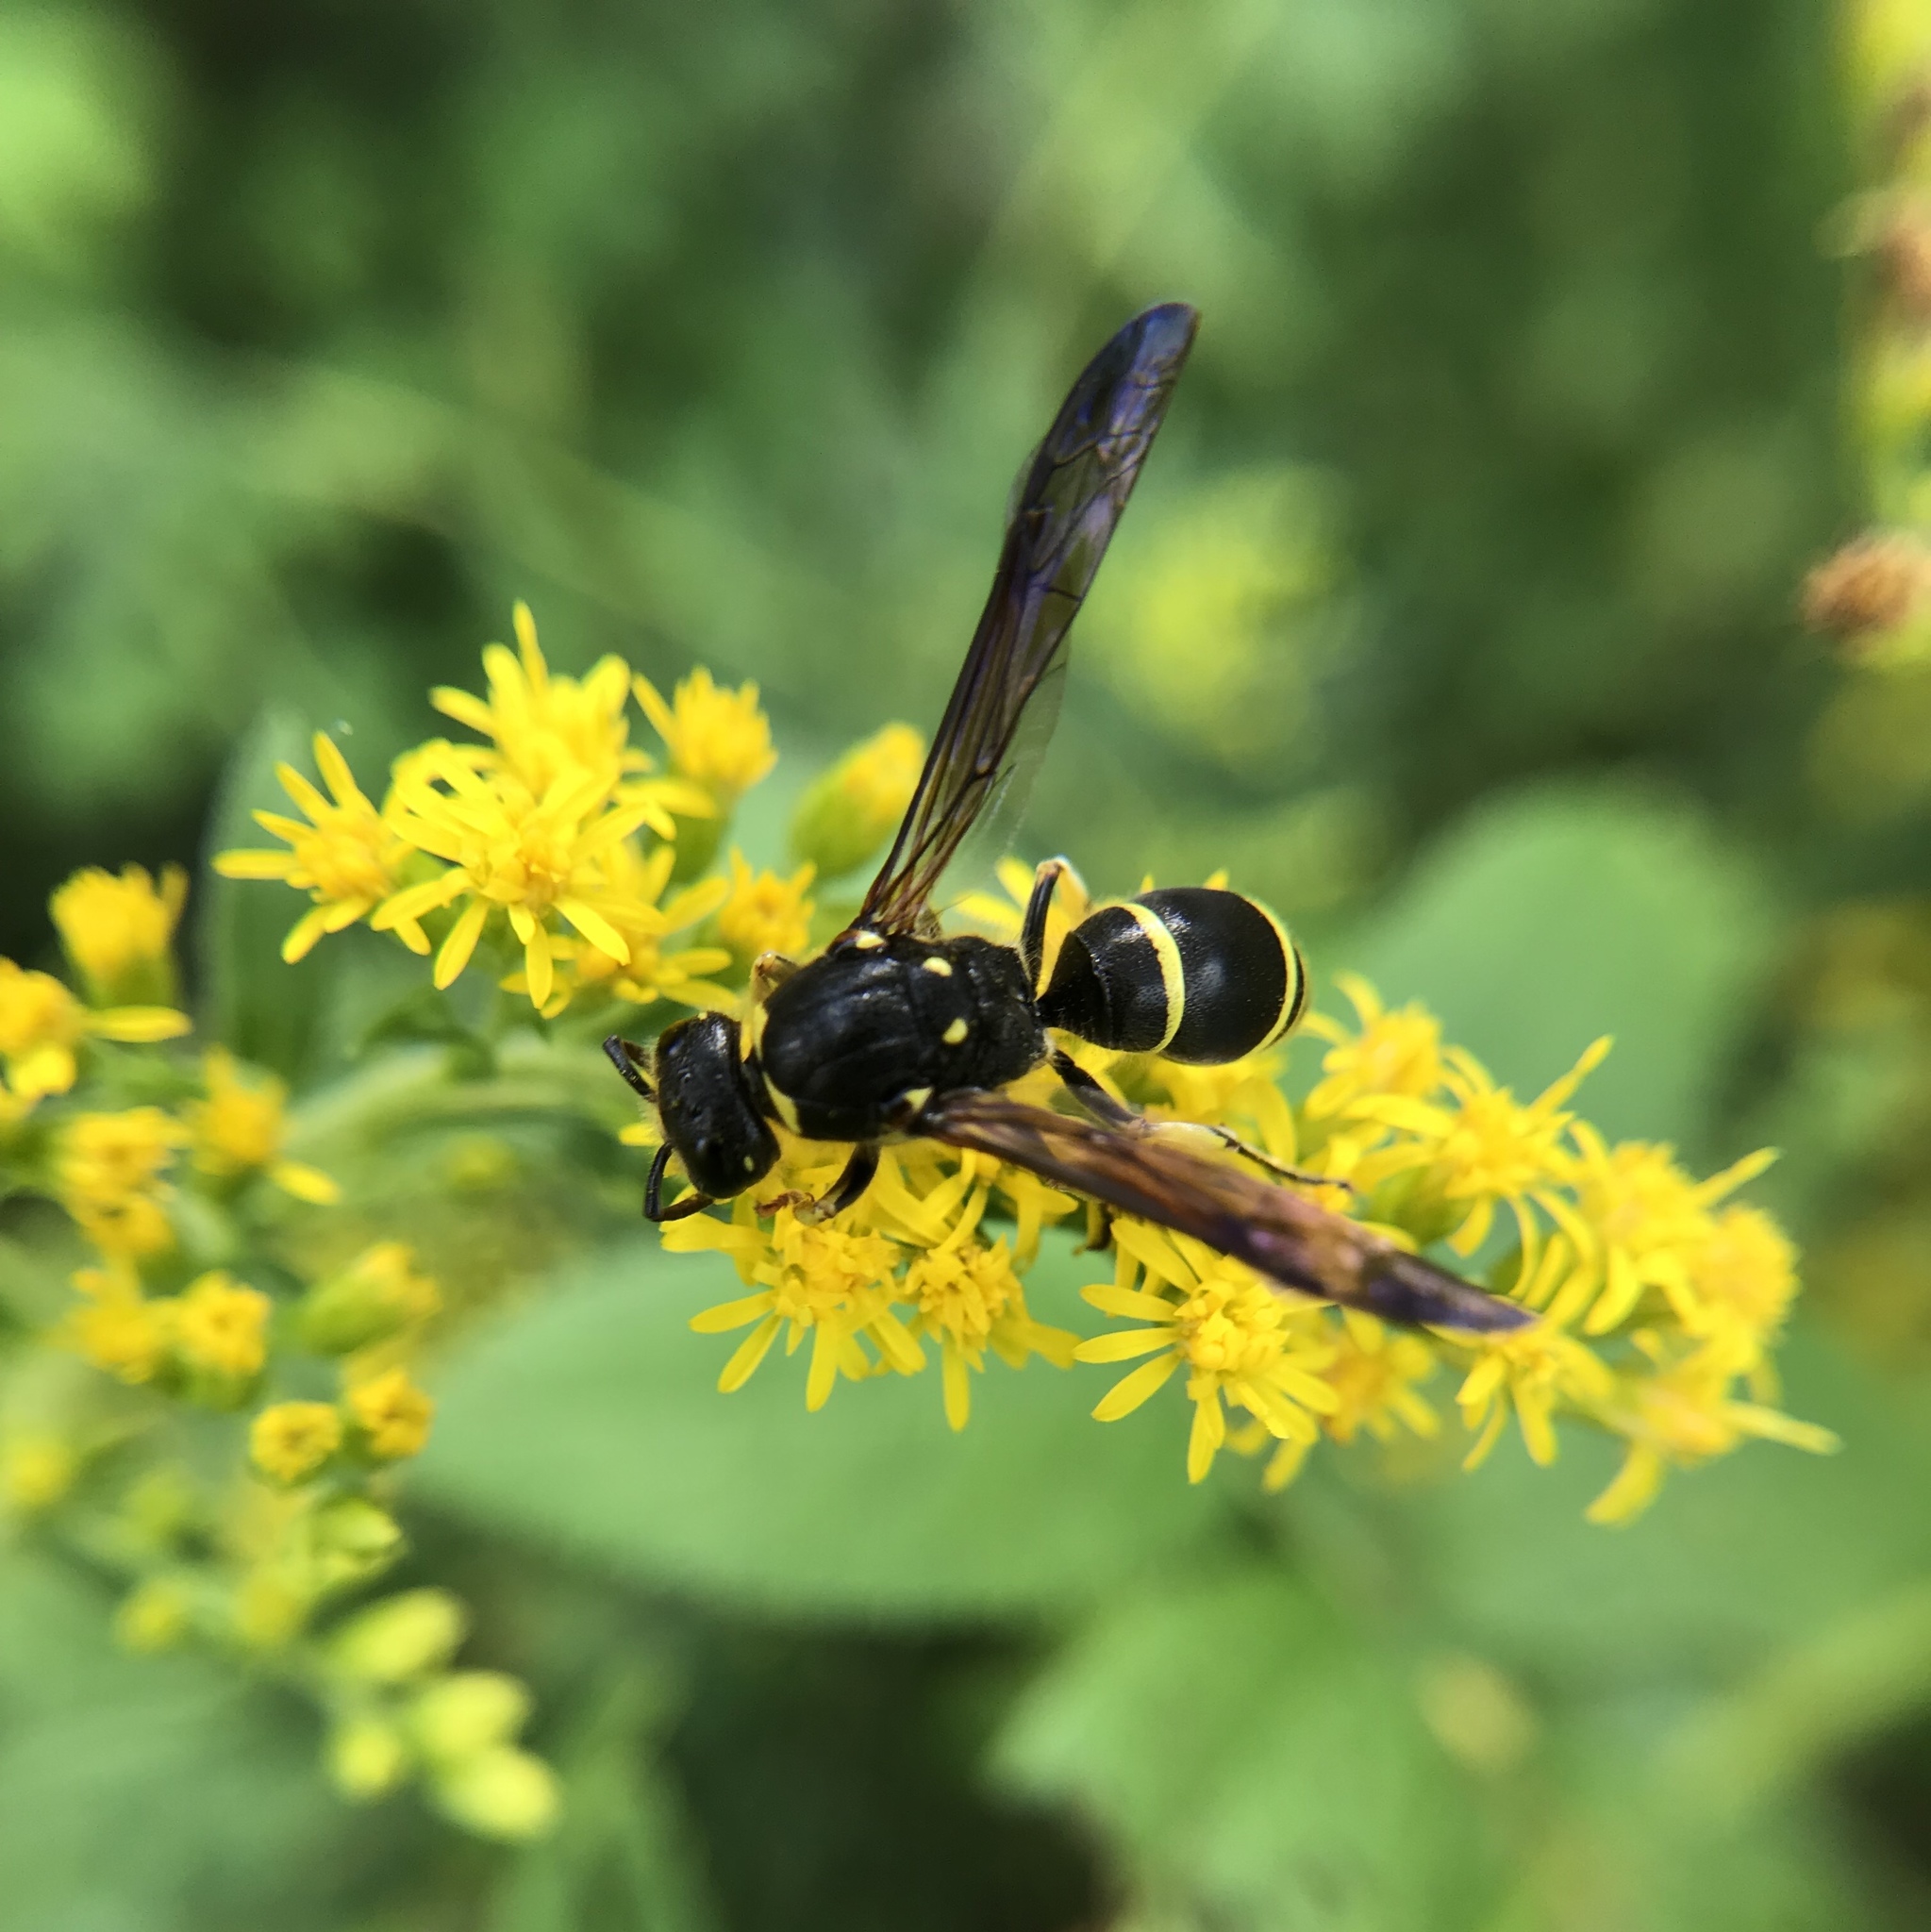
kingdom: Animalia
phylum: Arthropoda
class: Insecta
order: Hymenoptera
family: Vespidae
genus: Ancistrocerus
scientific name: Ancistrocerus
